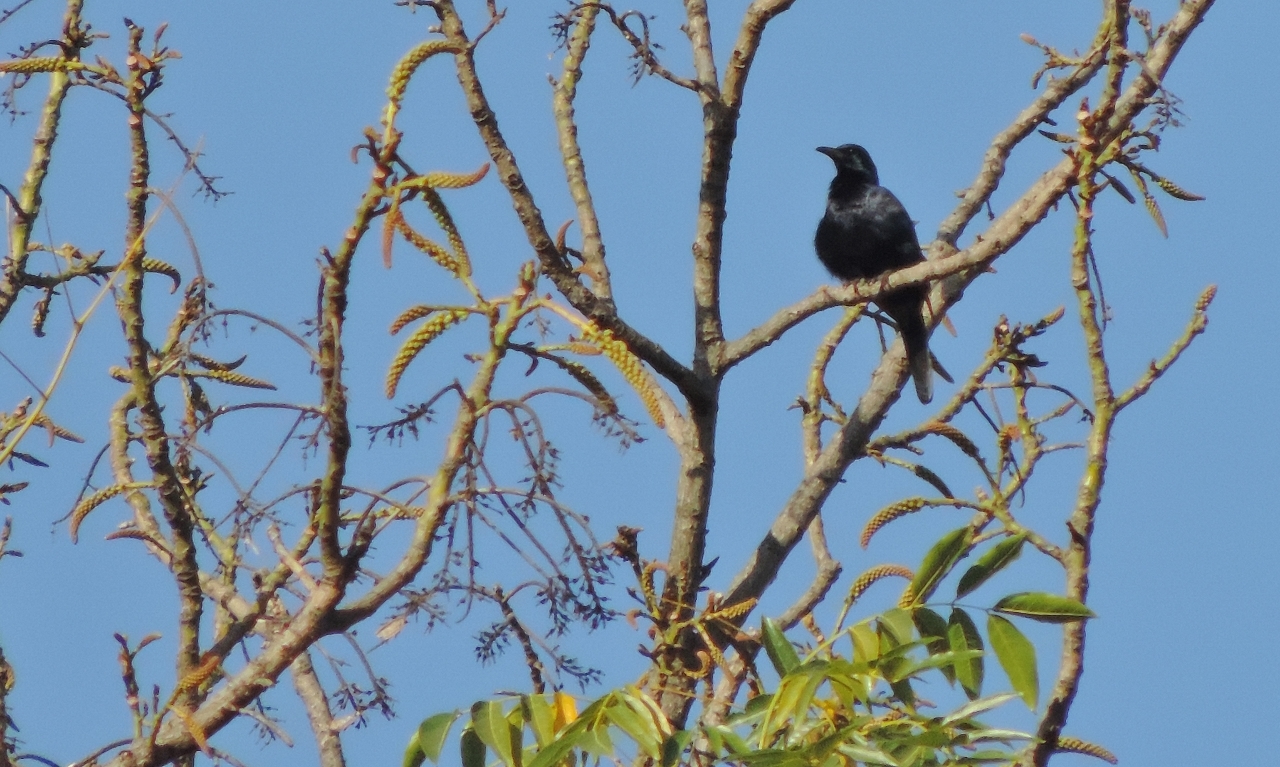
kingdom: Animalia
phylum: Chordata
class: Aves
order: Passeriformes
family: Sturnidae
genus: Onychognathus
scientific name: Onychognathus morio
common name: Red-winged starling
